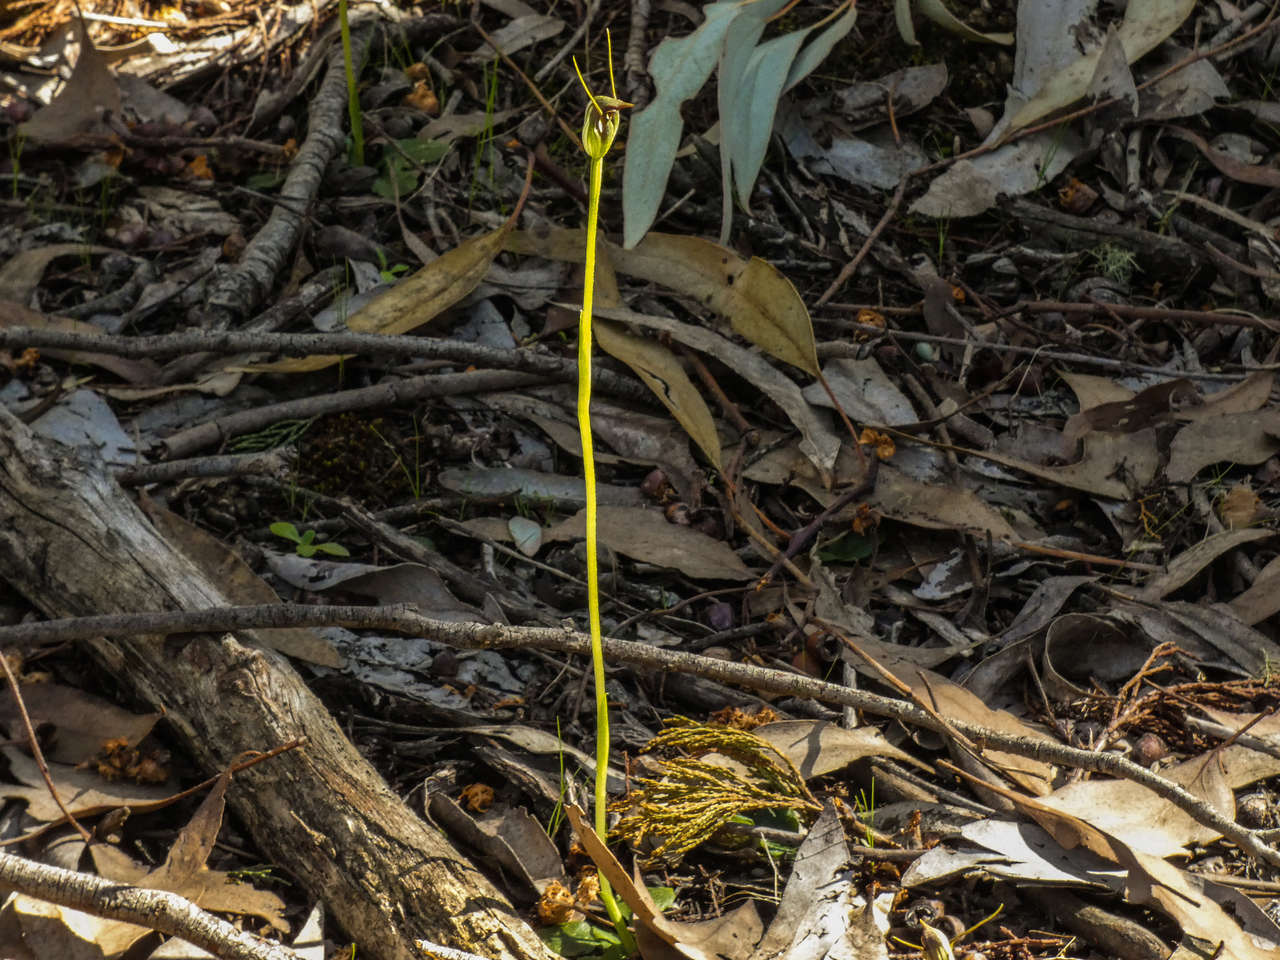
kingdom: Plantae
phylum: Tracheophyta
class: Liliopsida
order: Asparagales
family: Orchidaceae
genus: Pterostylis
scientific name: Pterostylis pedunculata
